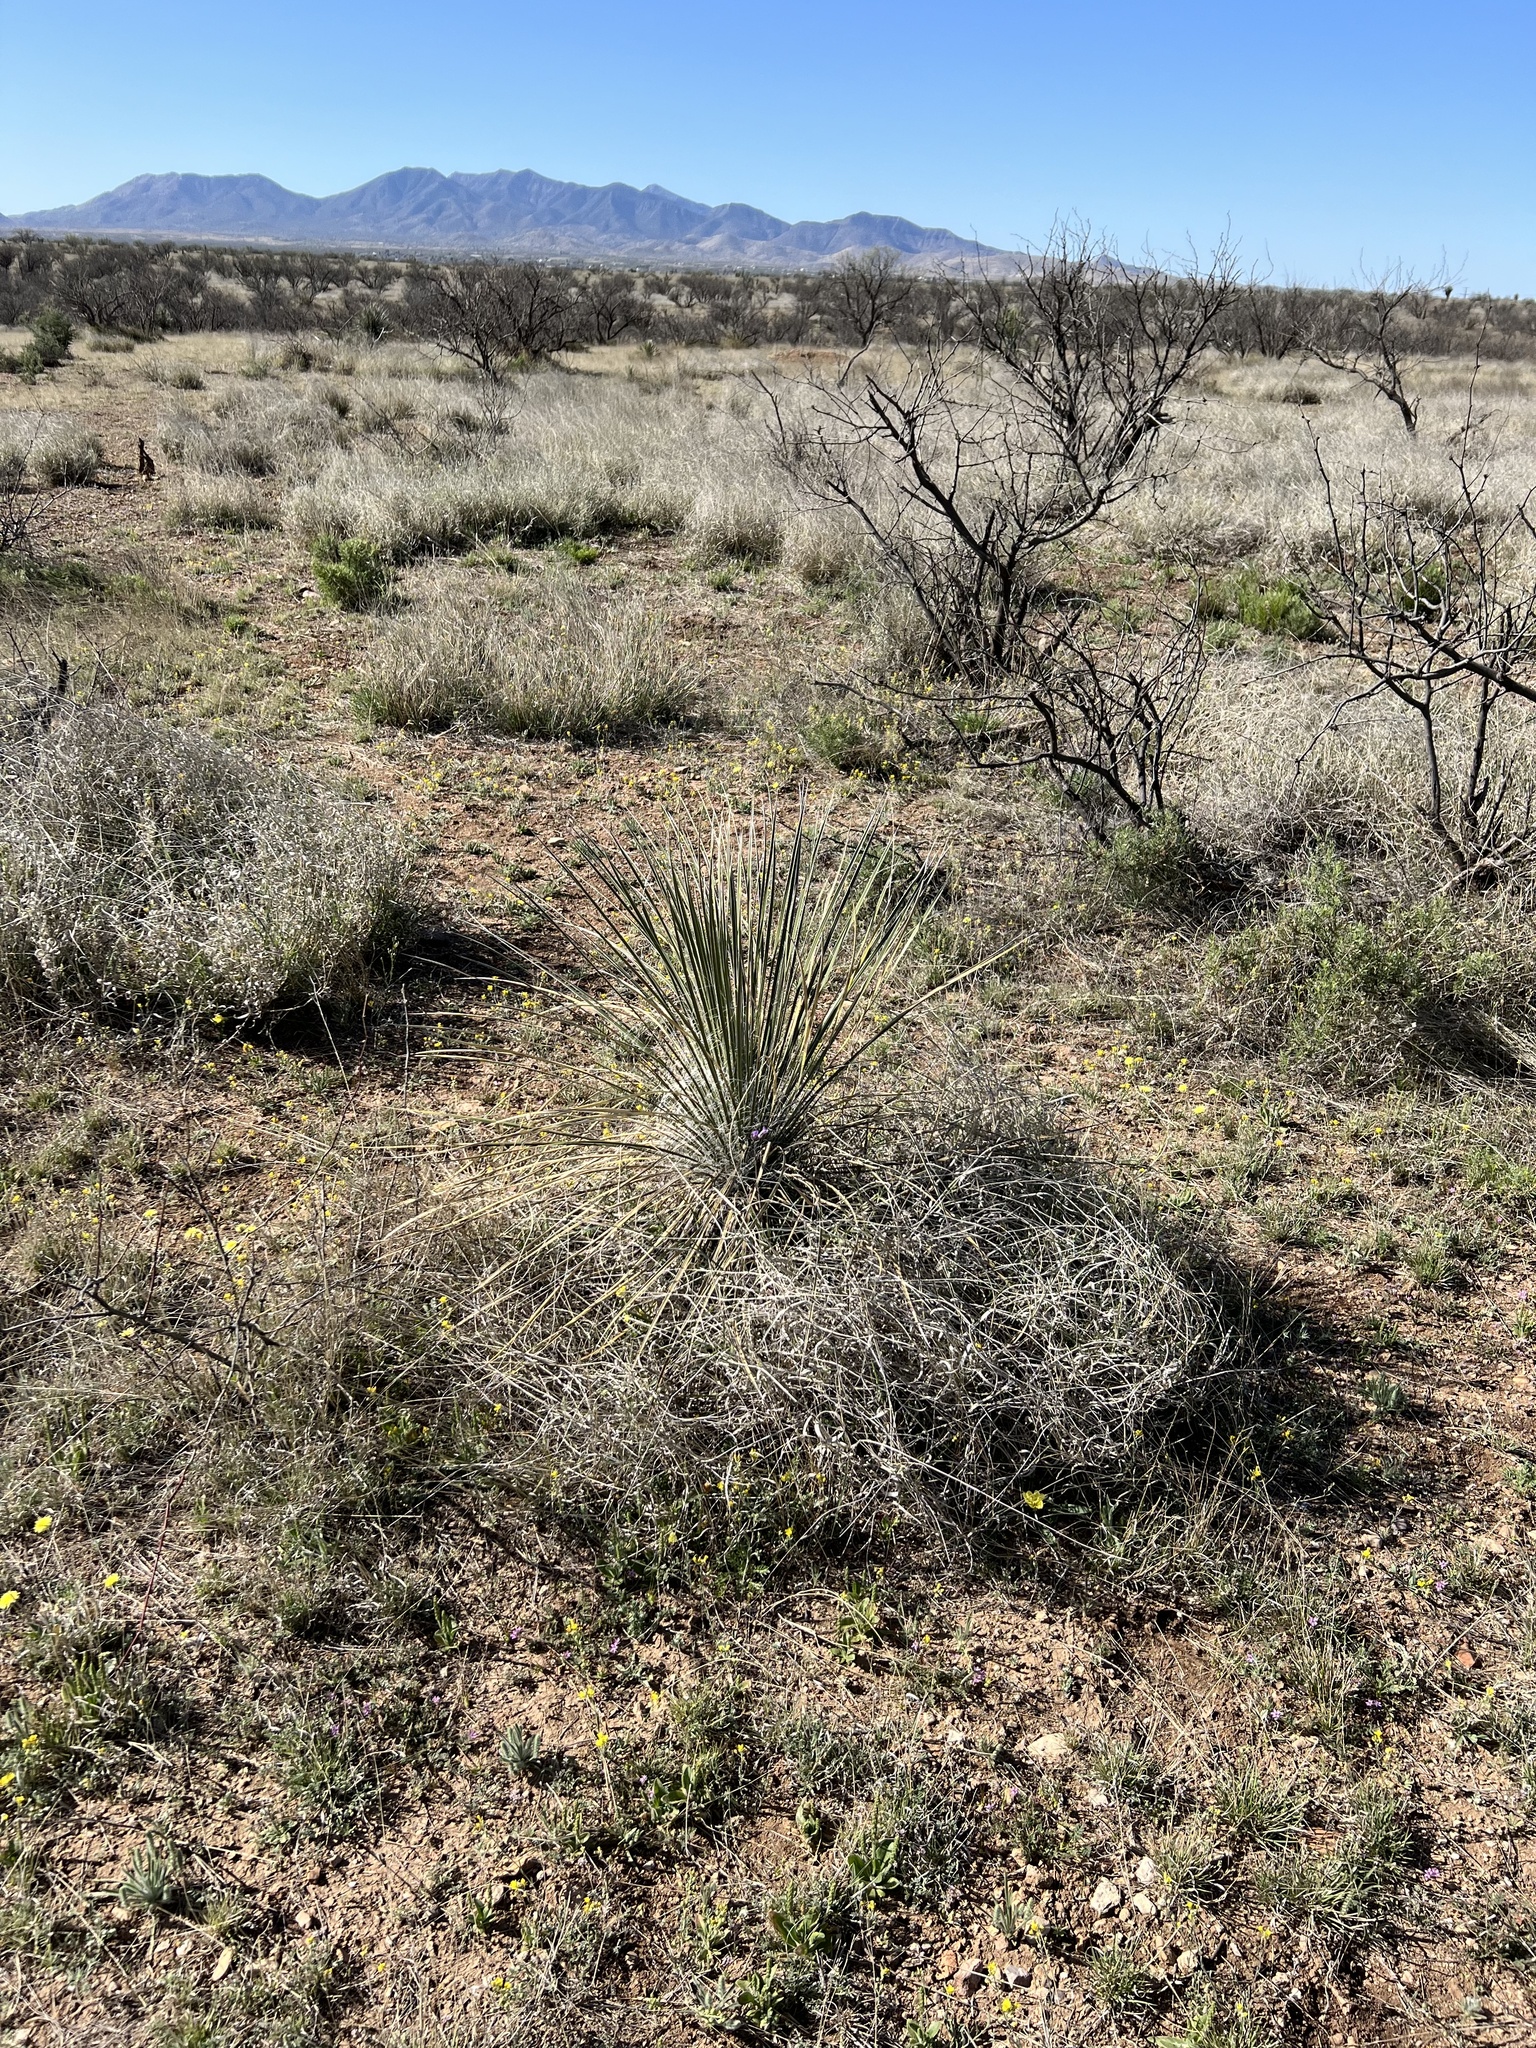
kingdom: Plantae
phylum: Tracheophyta
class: Liliopsida
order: Asparagales
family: Asparagaceae
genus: Yucca
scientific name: Yucca elata
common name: Palmella
